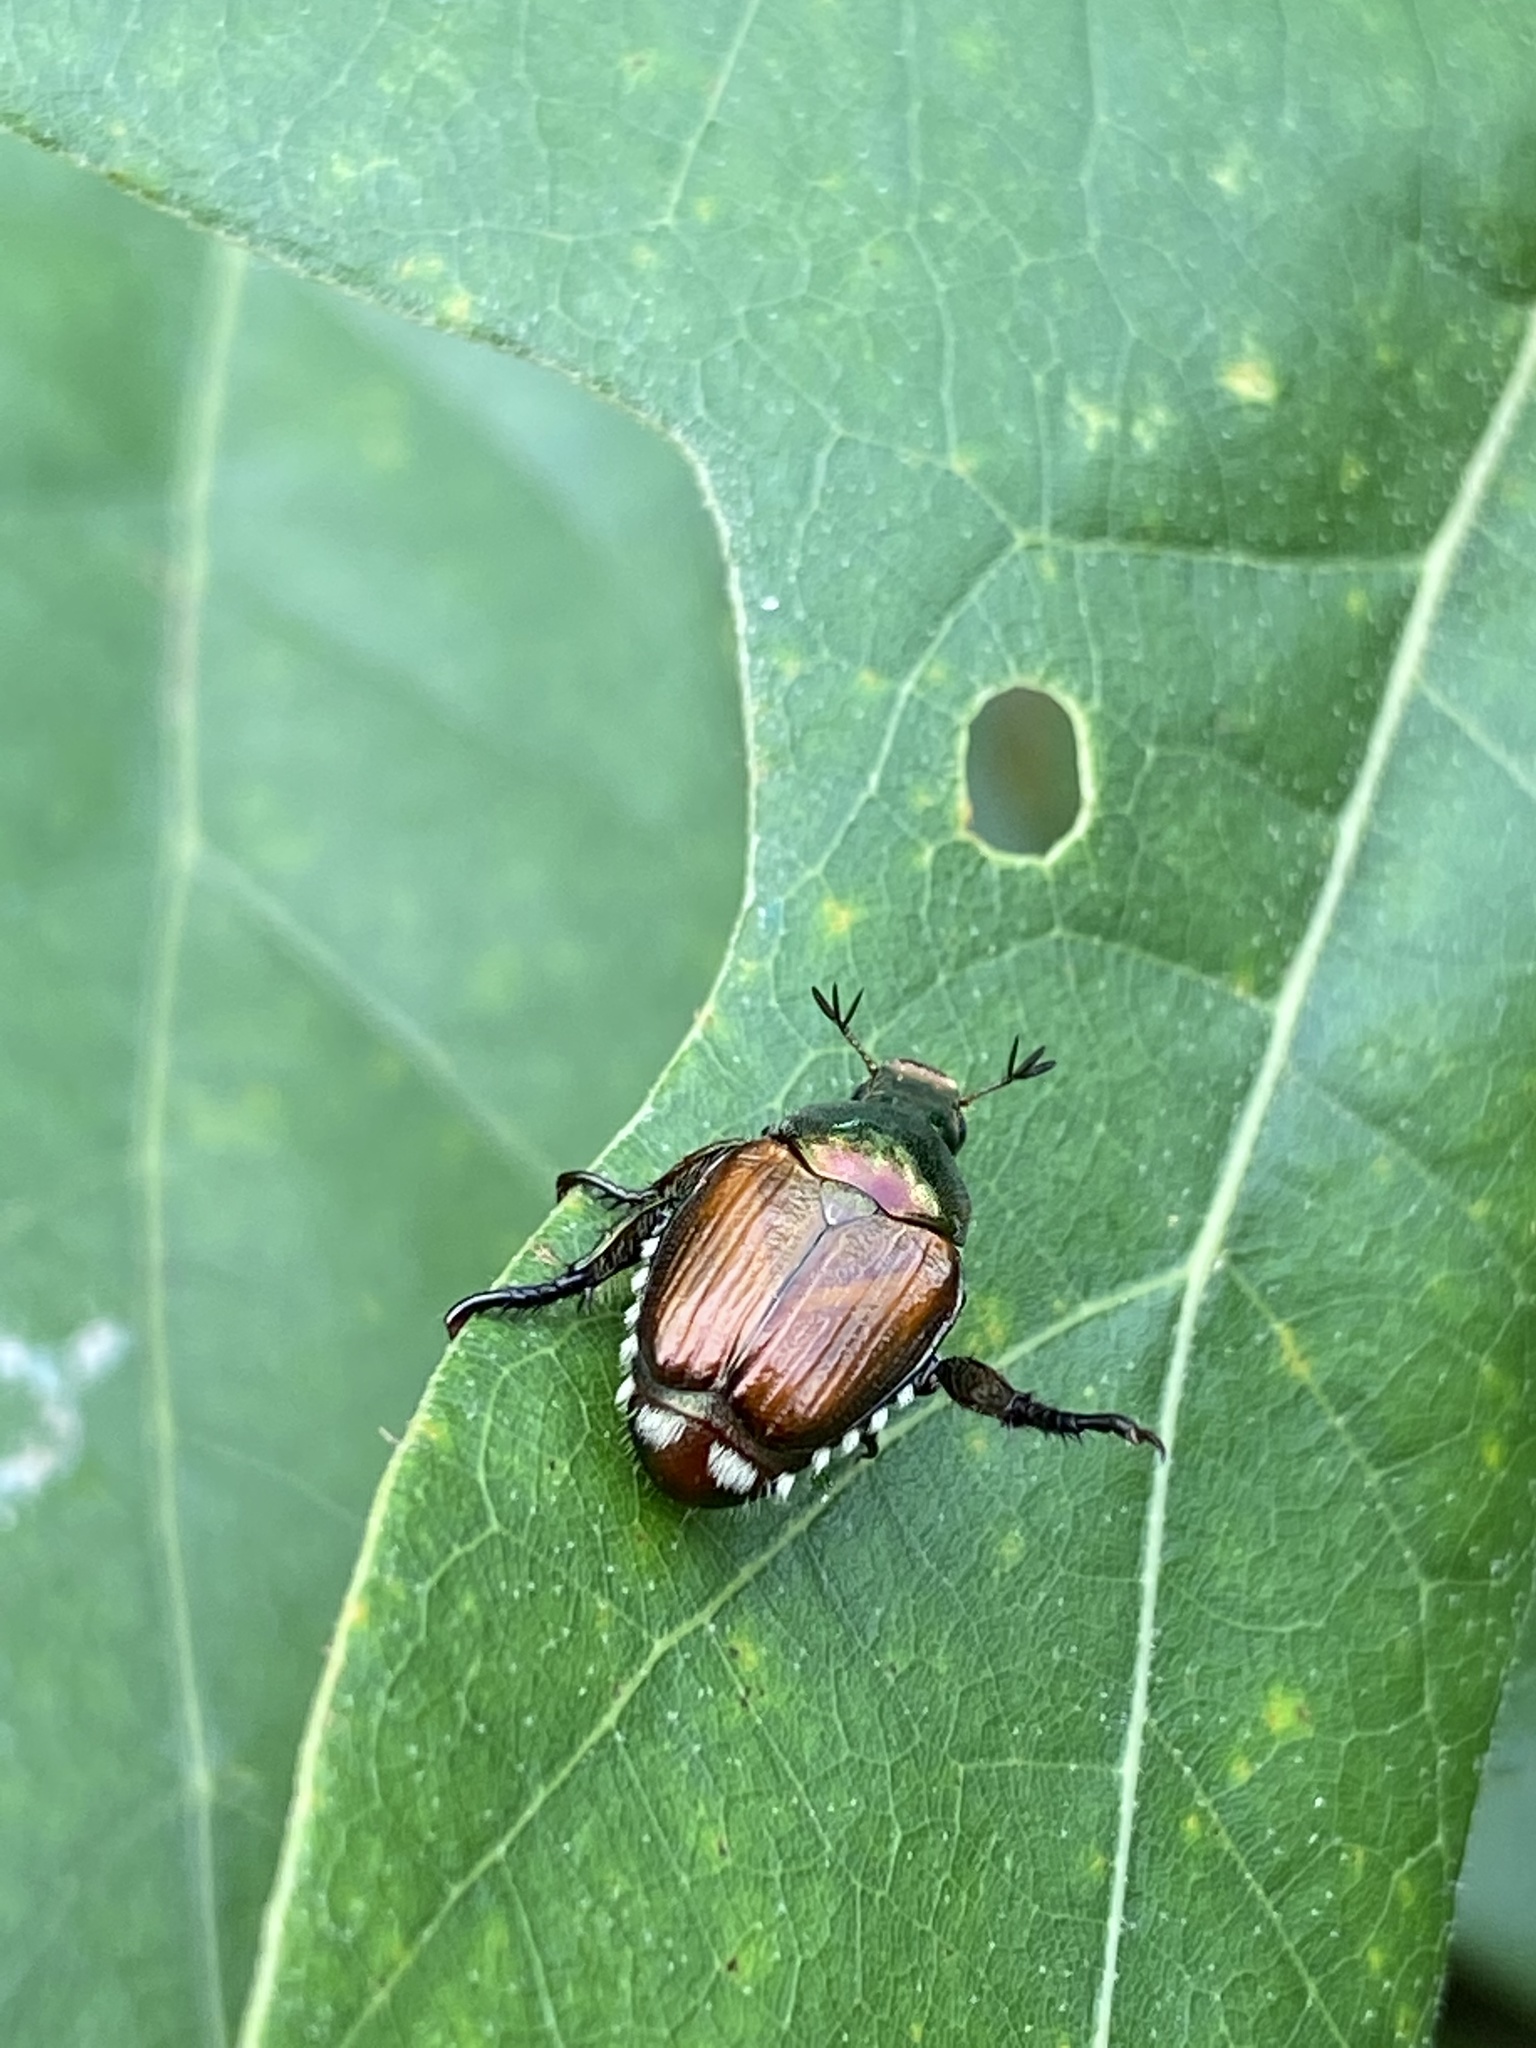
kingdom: Animalia
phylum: Arthropoda
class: Insecta
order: Coleoptera
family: Scarabaeidae
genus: Popillia
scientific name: Popillia japonica
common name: Japanese beetle
